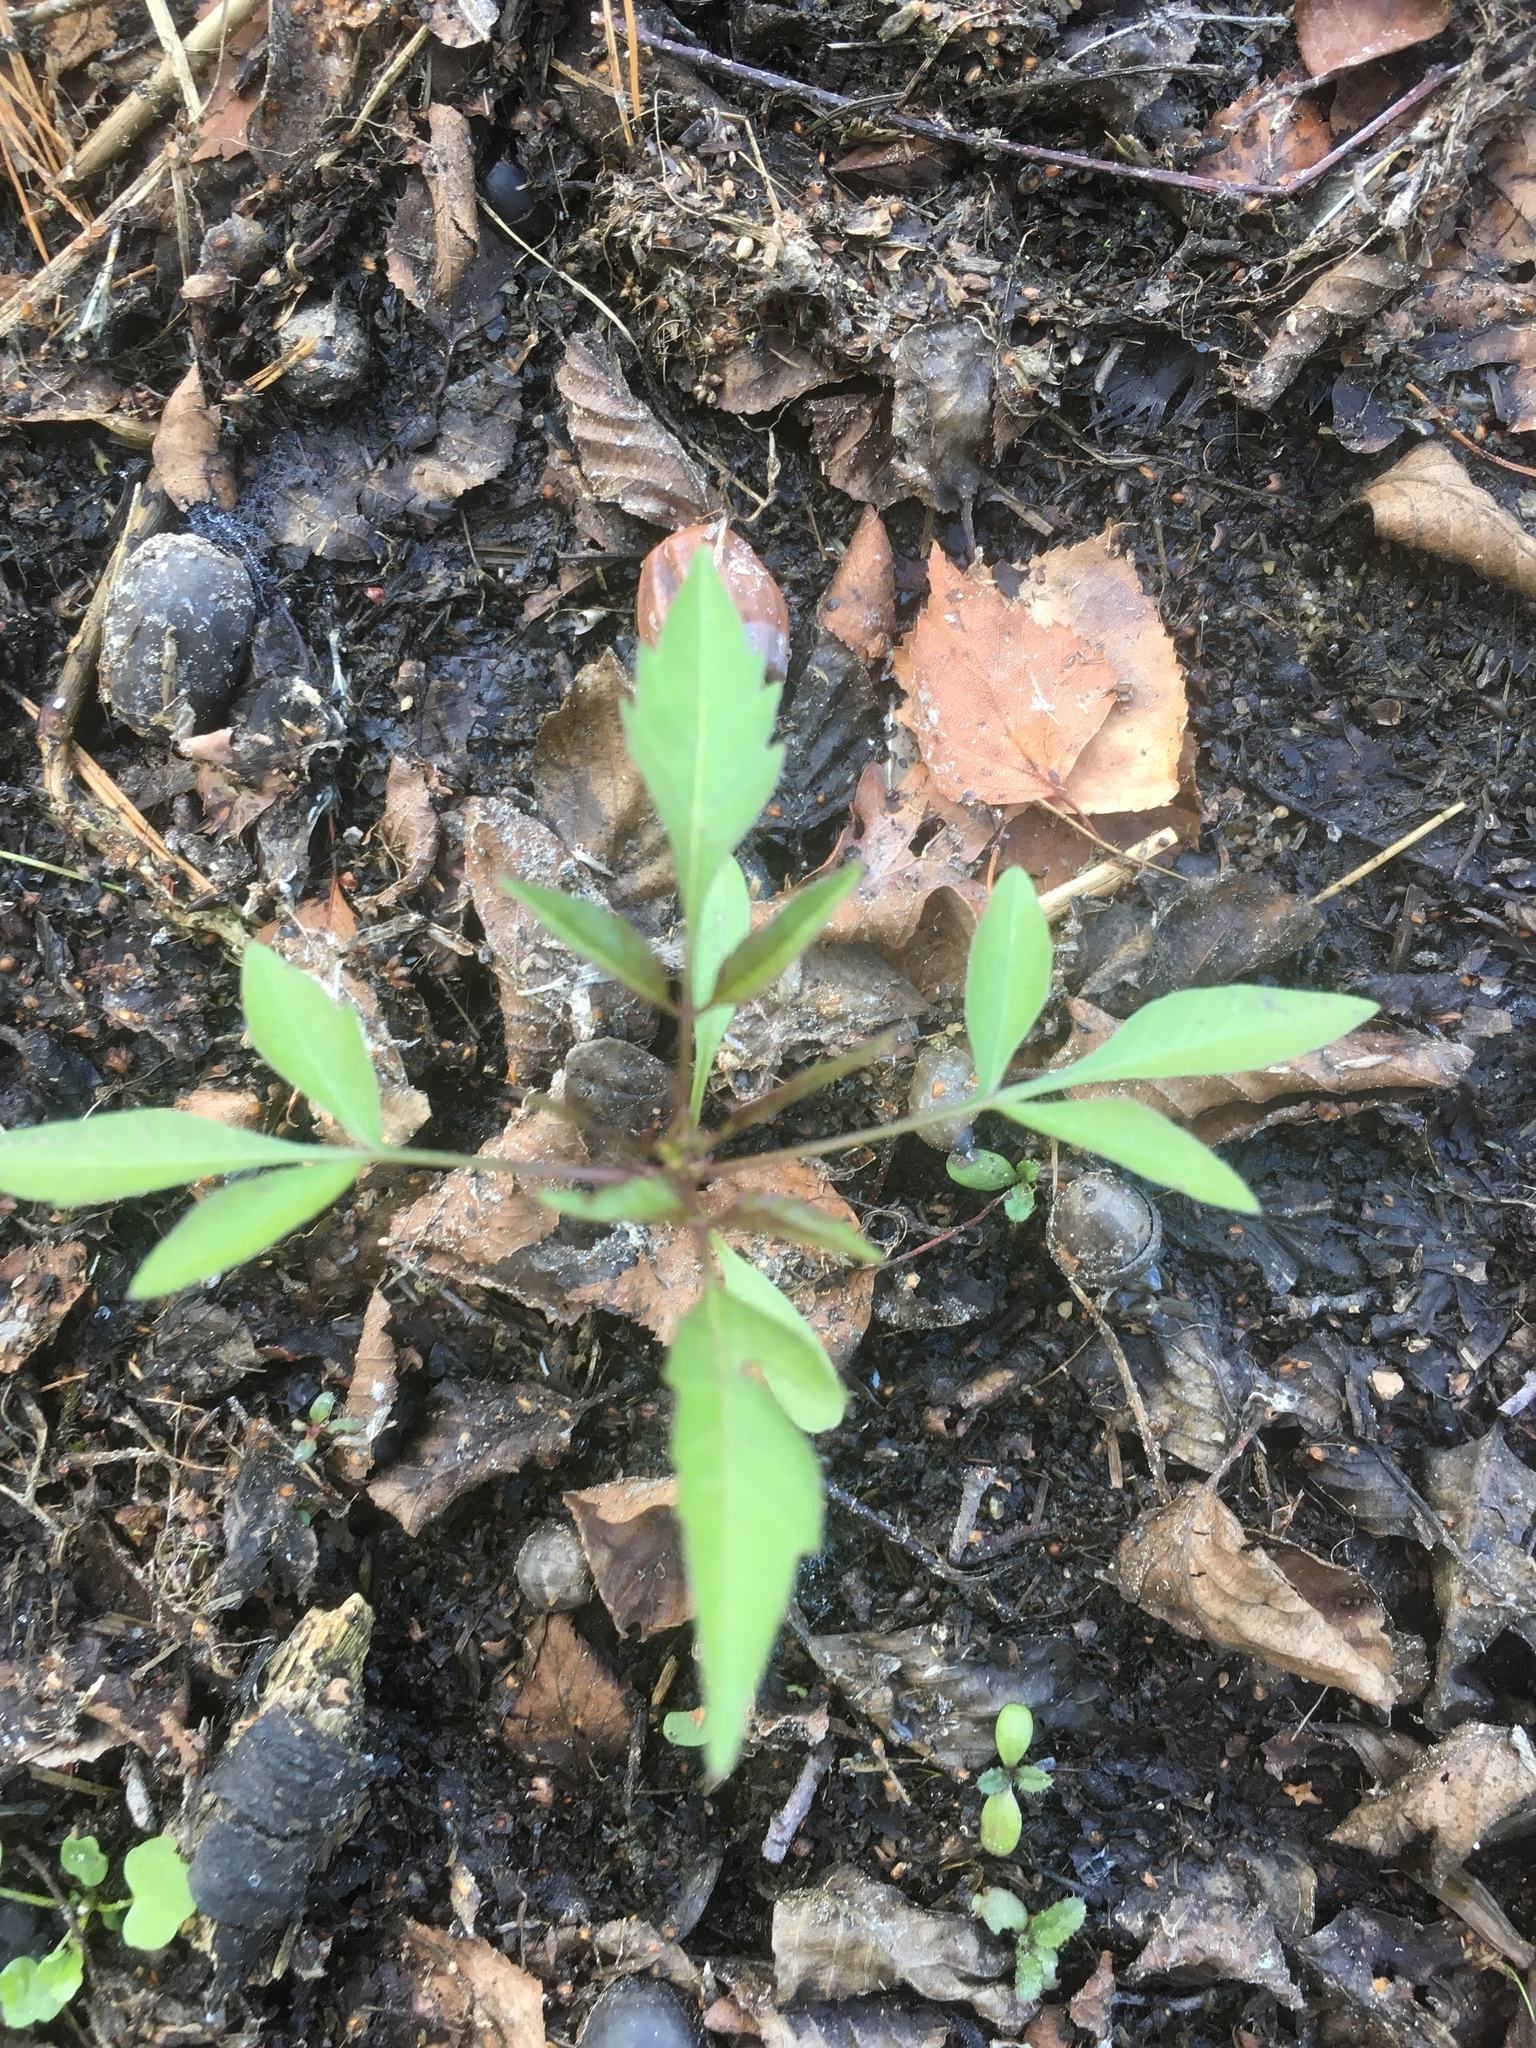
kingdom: Plantae
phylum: Tracheophyta
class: Magnoliopsida
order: Asterales
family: Asteraceae
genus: Bidens
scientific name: Bidens frondosa
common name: Beggarticks
